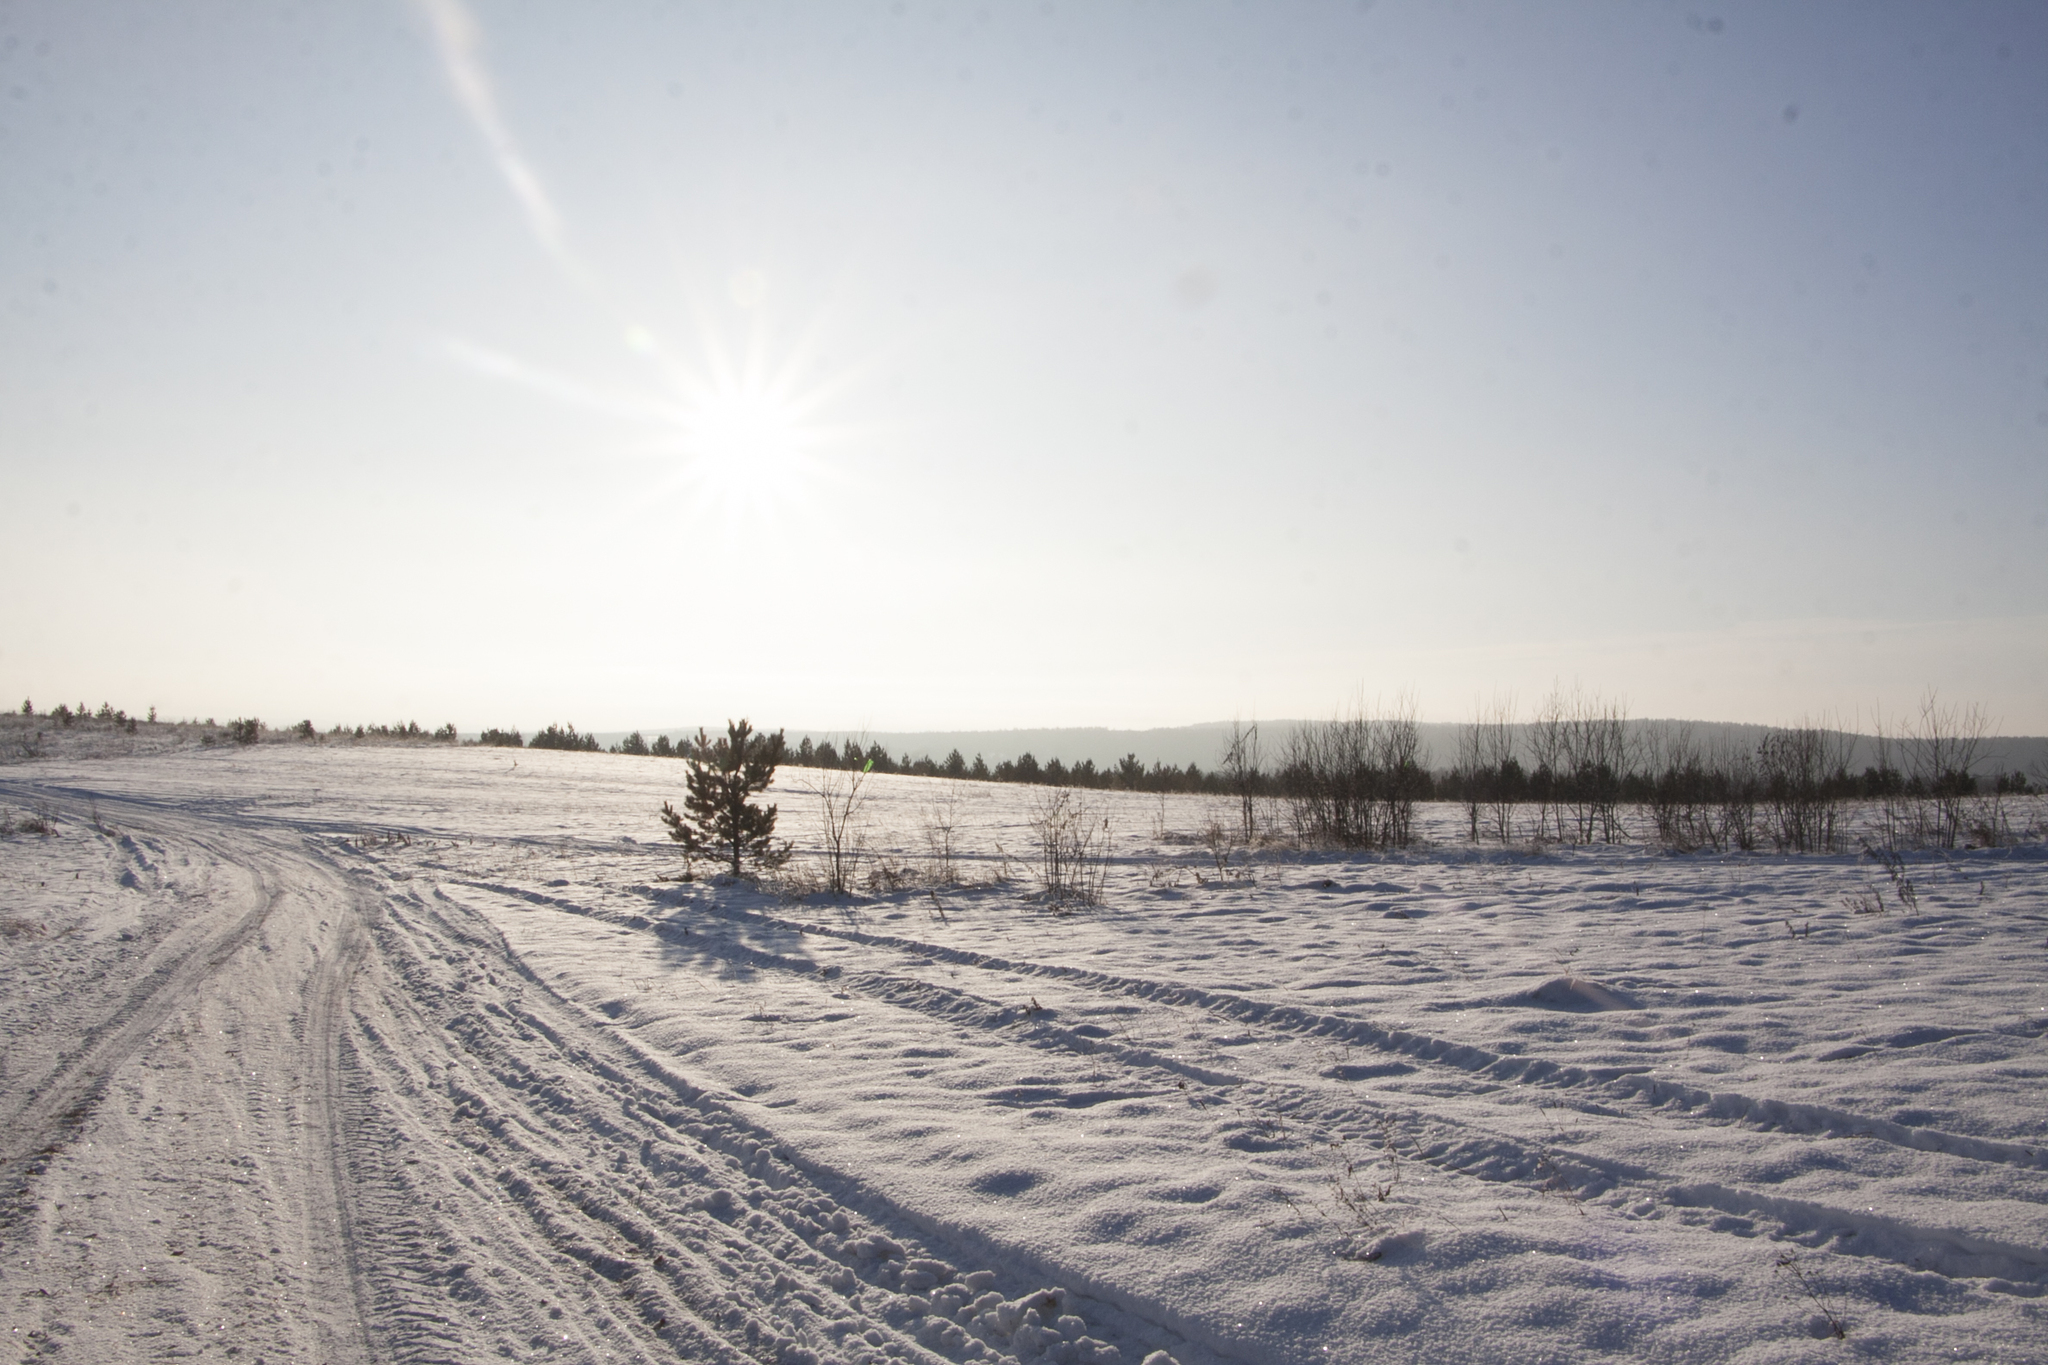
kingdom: Plantae
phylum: Tracheophyta
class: Pinopsida
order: Pinales
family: Pinaceae
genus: Pinus
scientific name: Pinus sylvestris
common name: Scots pine
